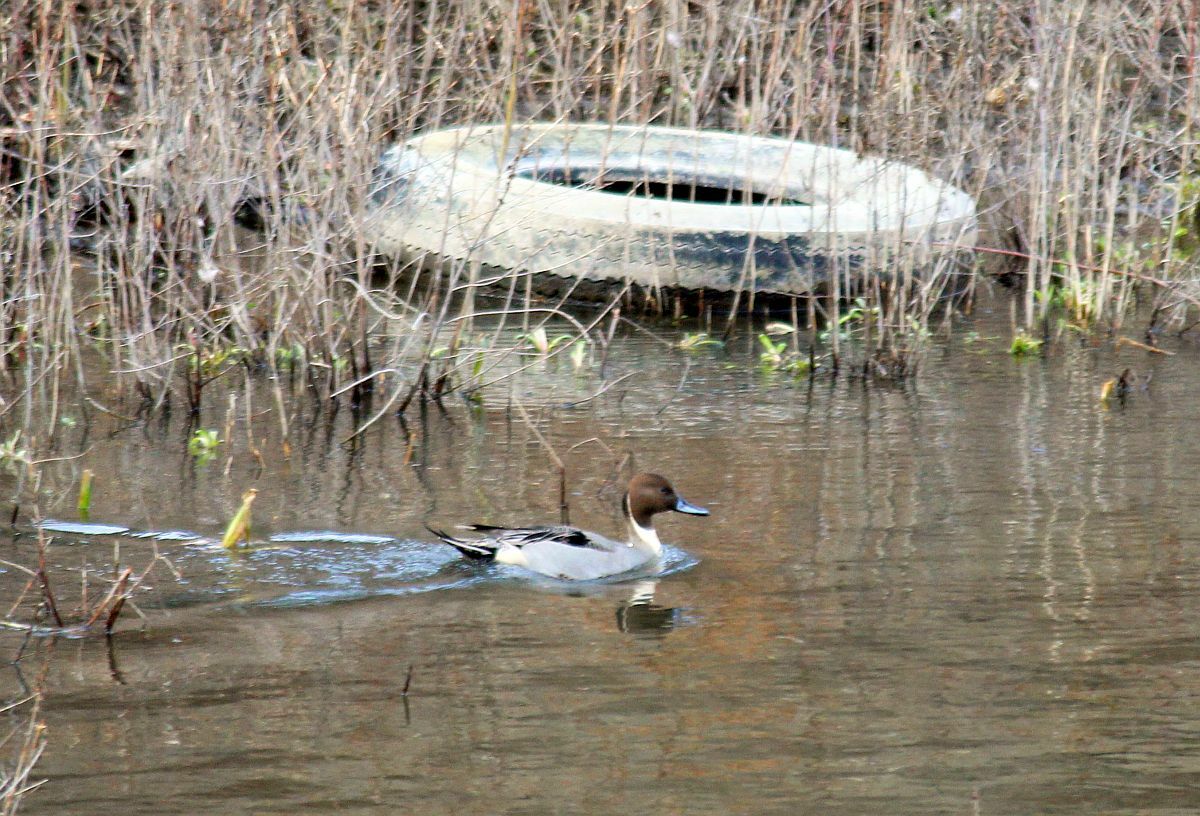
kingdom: Animalia
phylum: Chordata
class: Aves
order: Anseriformes
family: Anatidae
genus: Anas
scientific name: Anas acuta
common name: Northern pintail
